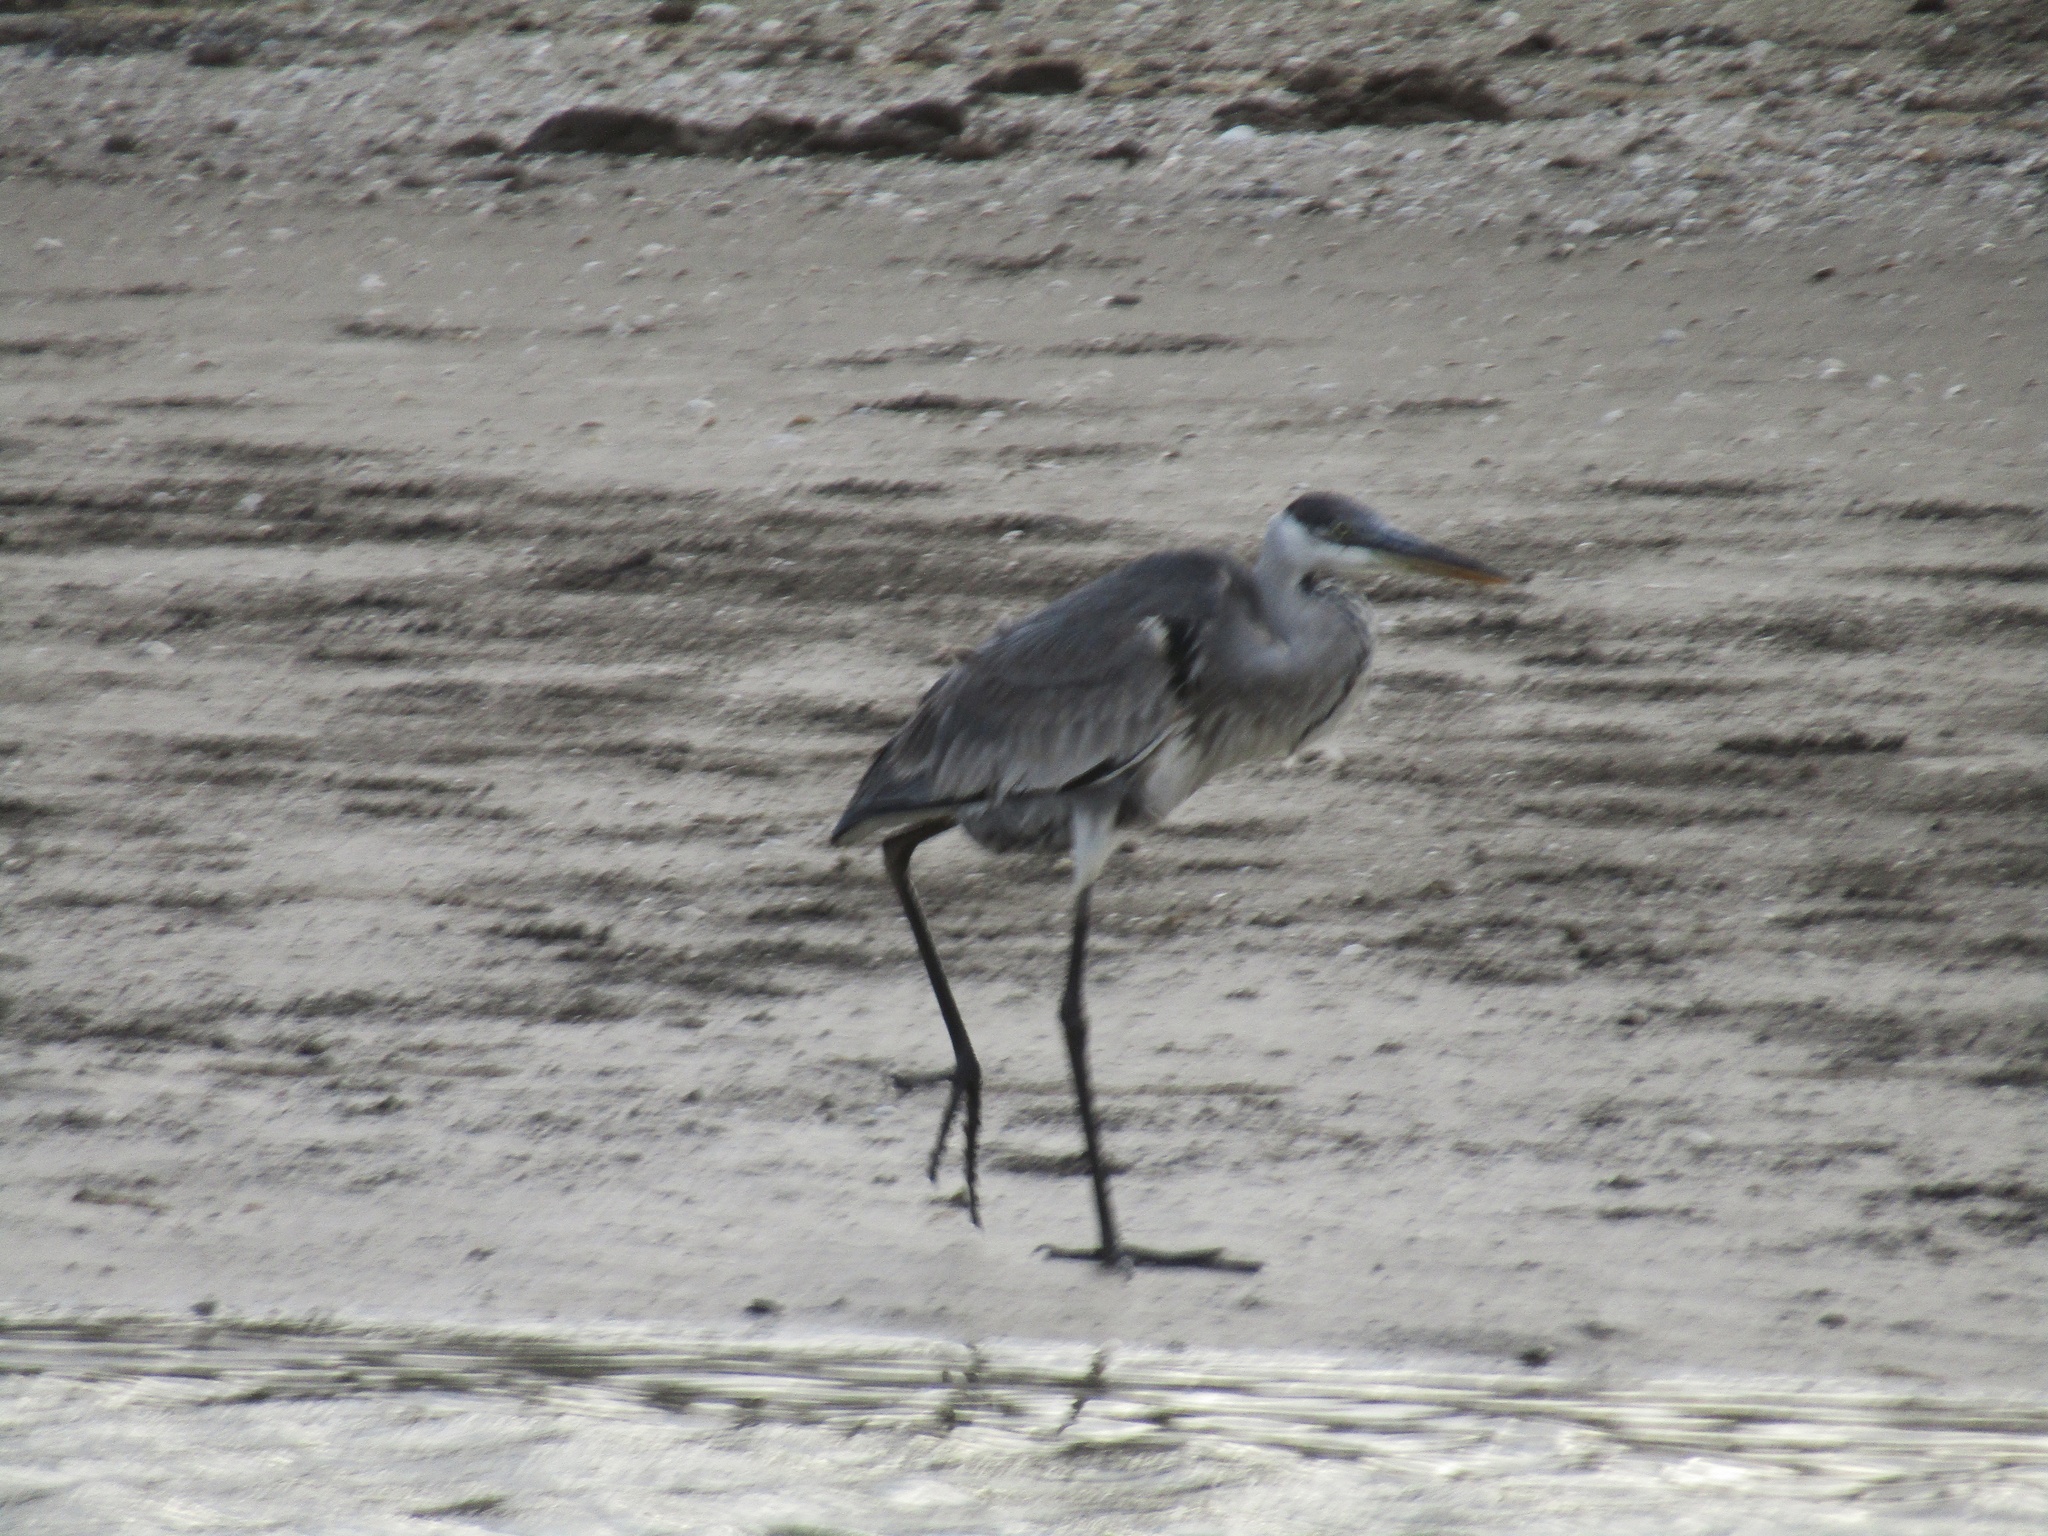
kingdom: Animalia
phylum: Chordata
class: Aves
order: Pelecaniformes
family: Ardeidae
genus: Ardea
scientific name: Ardea cocoi
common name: Cocoi heron
